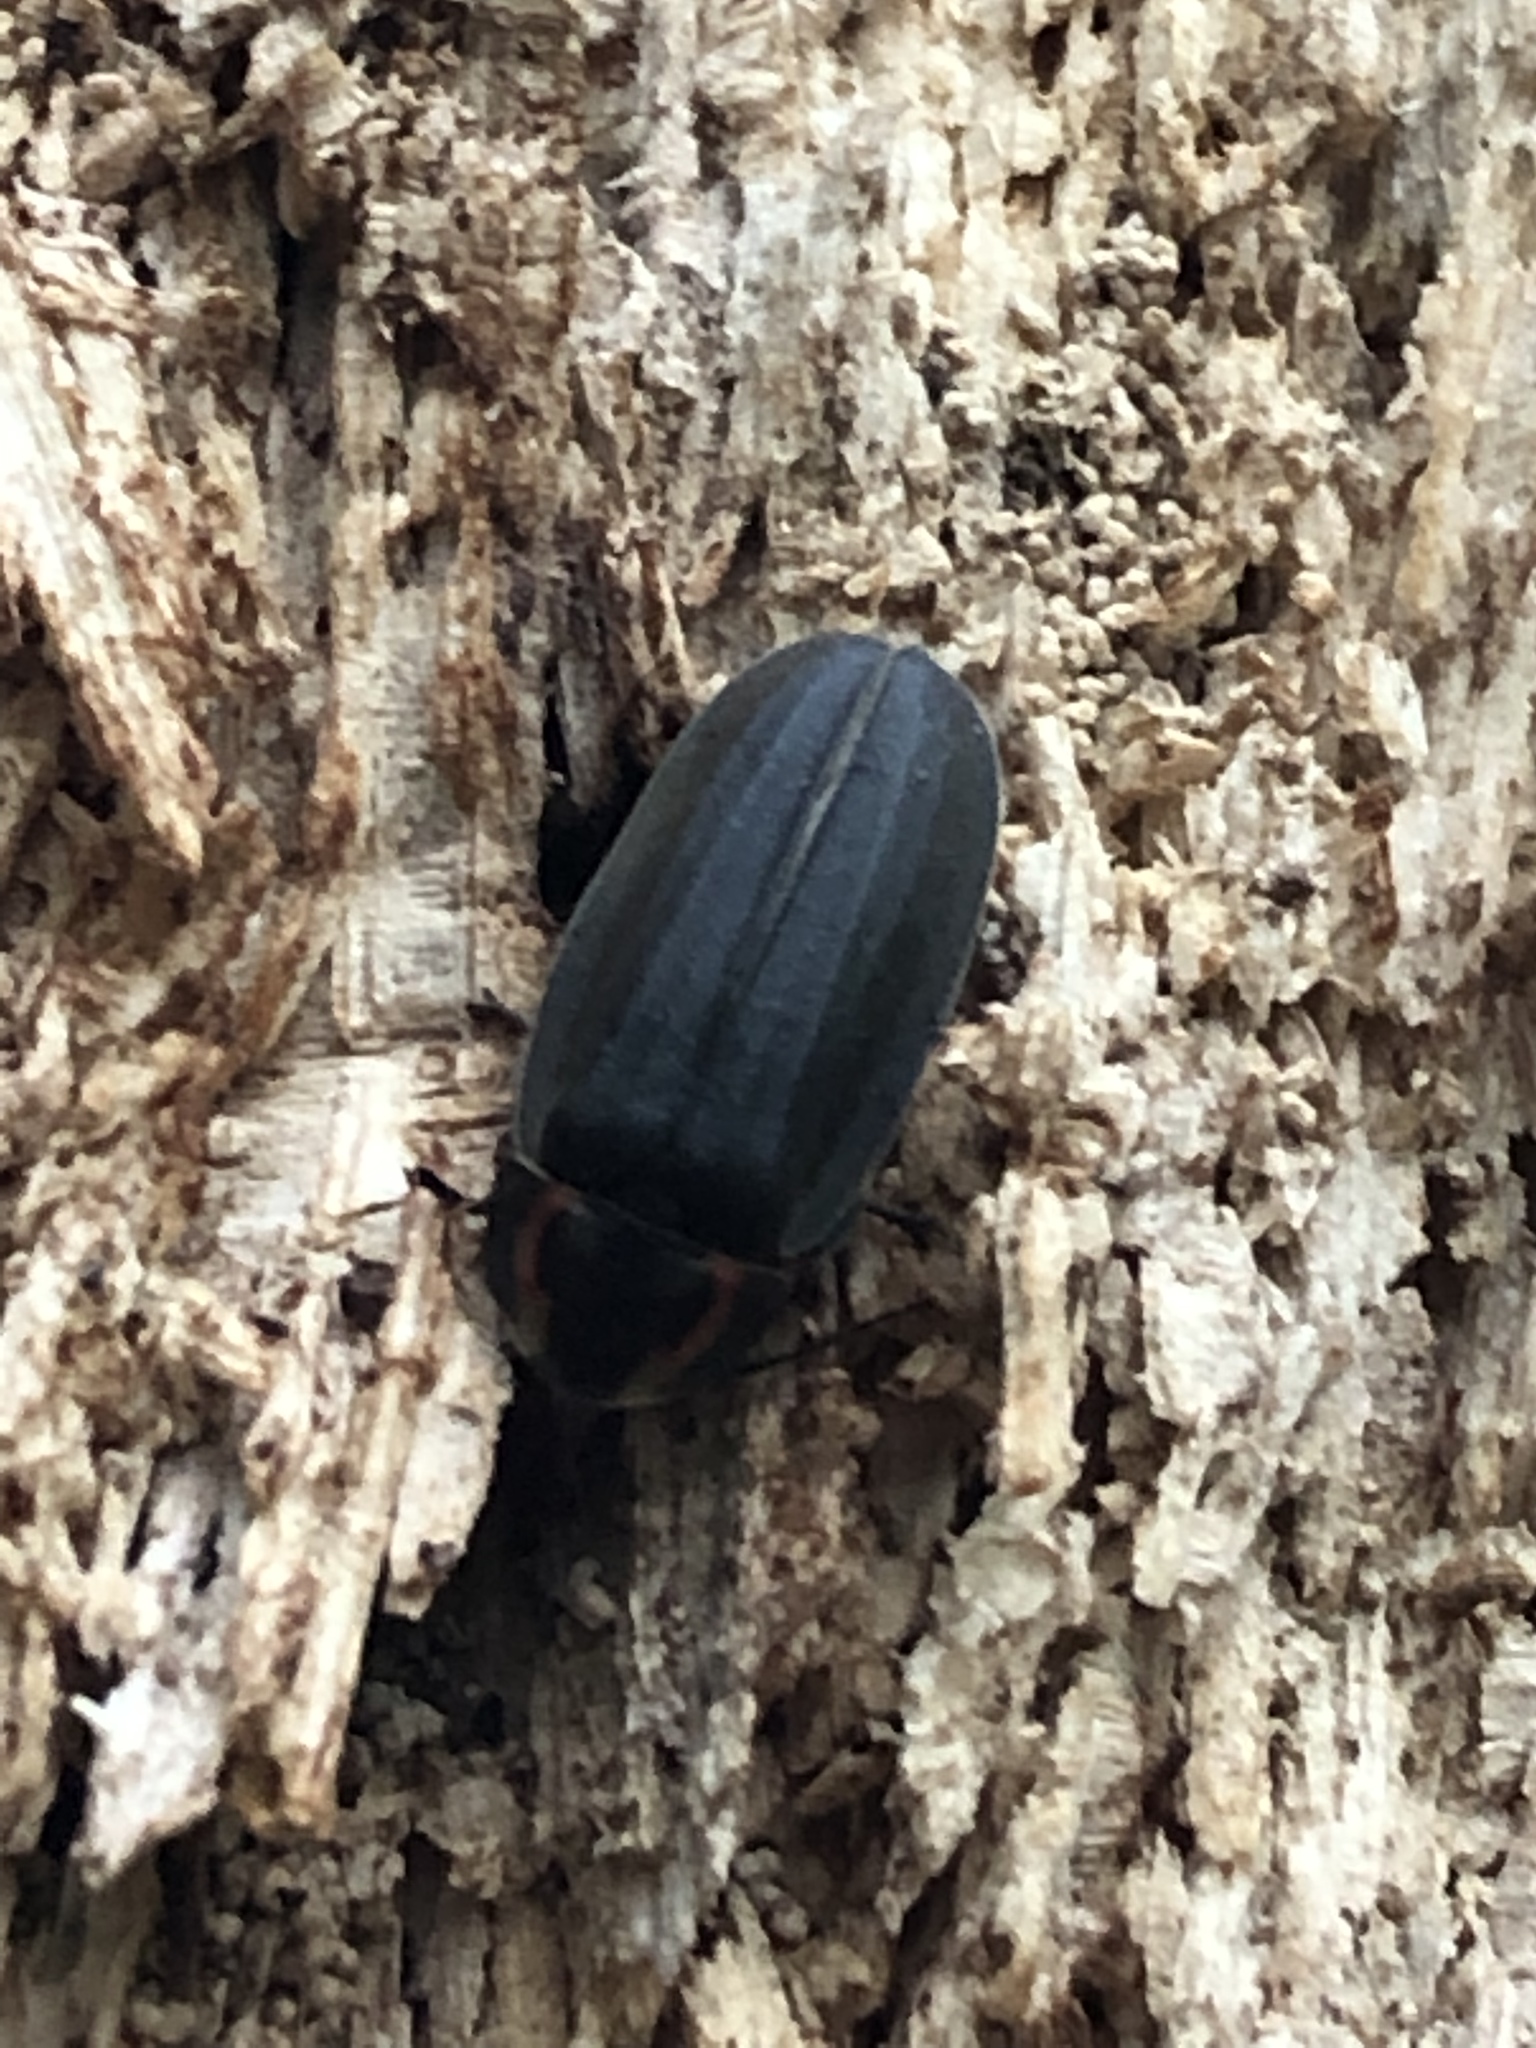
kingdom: Animalia
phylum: Arthropoda
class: Insecta
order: Coleoptera
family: Lampyridae
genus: Photinus
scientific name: Photinus corrusca
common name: Winter firefly
